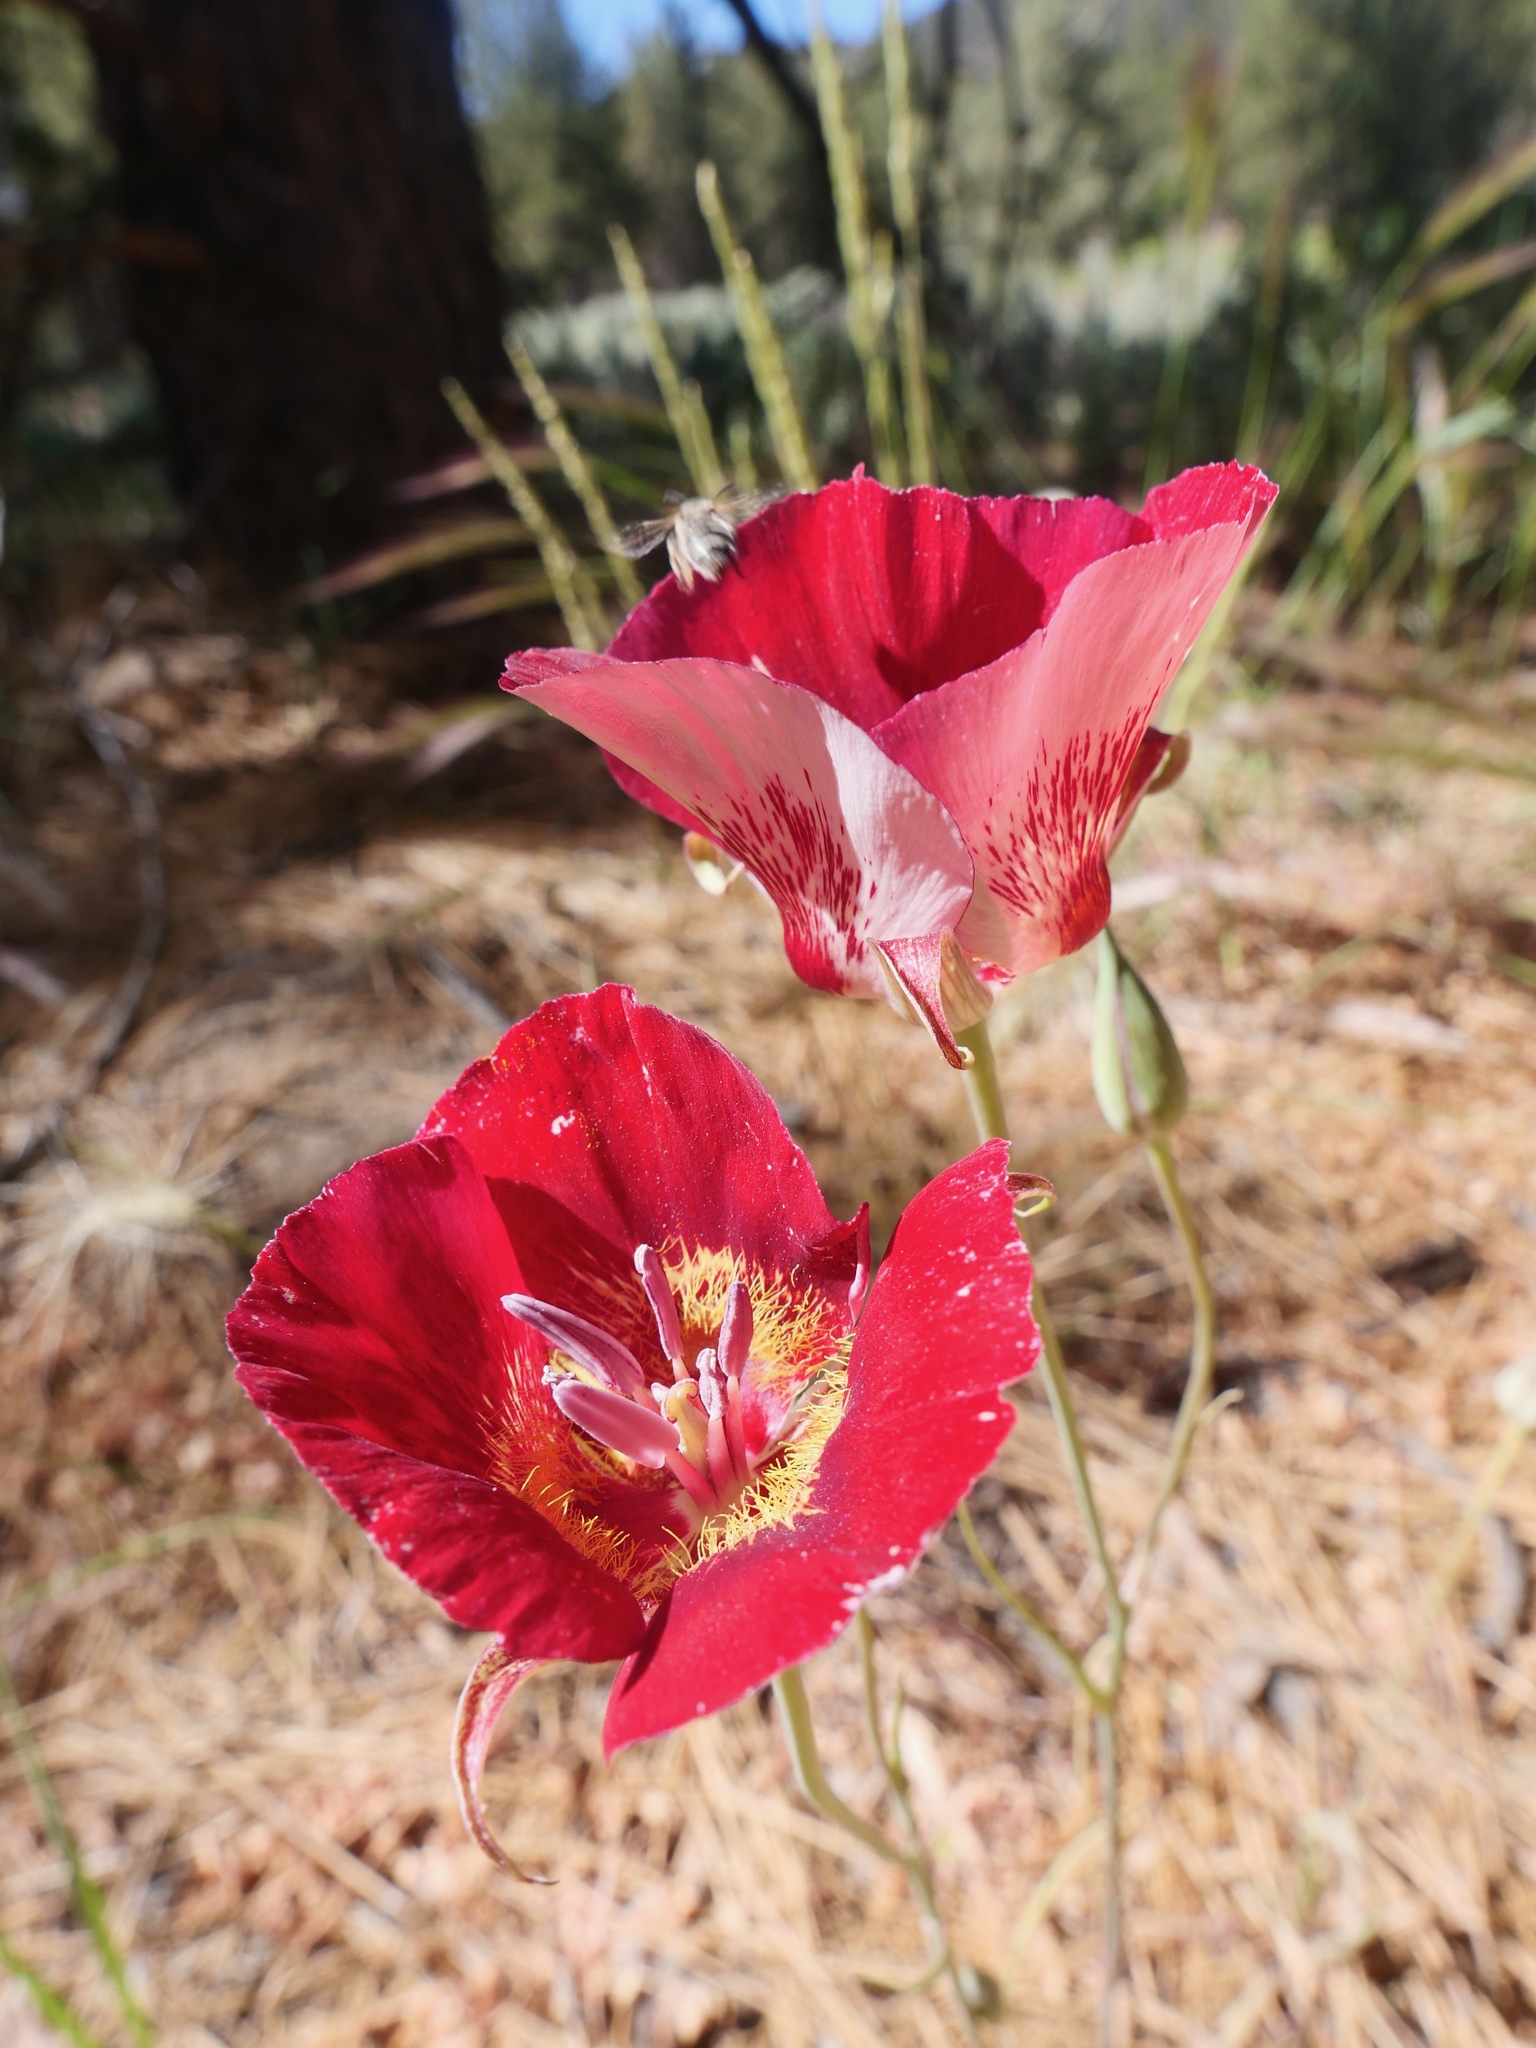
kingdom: Plantae
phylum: Tracheophyta
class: Liliopsida
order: Liliales
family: Liliaceae
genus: Calochortus
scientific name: Calochortus venustus
